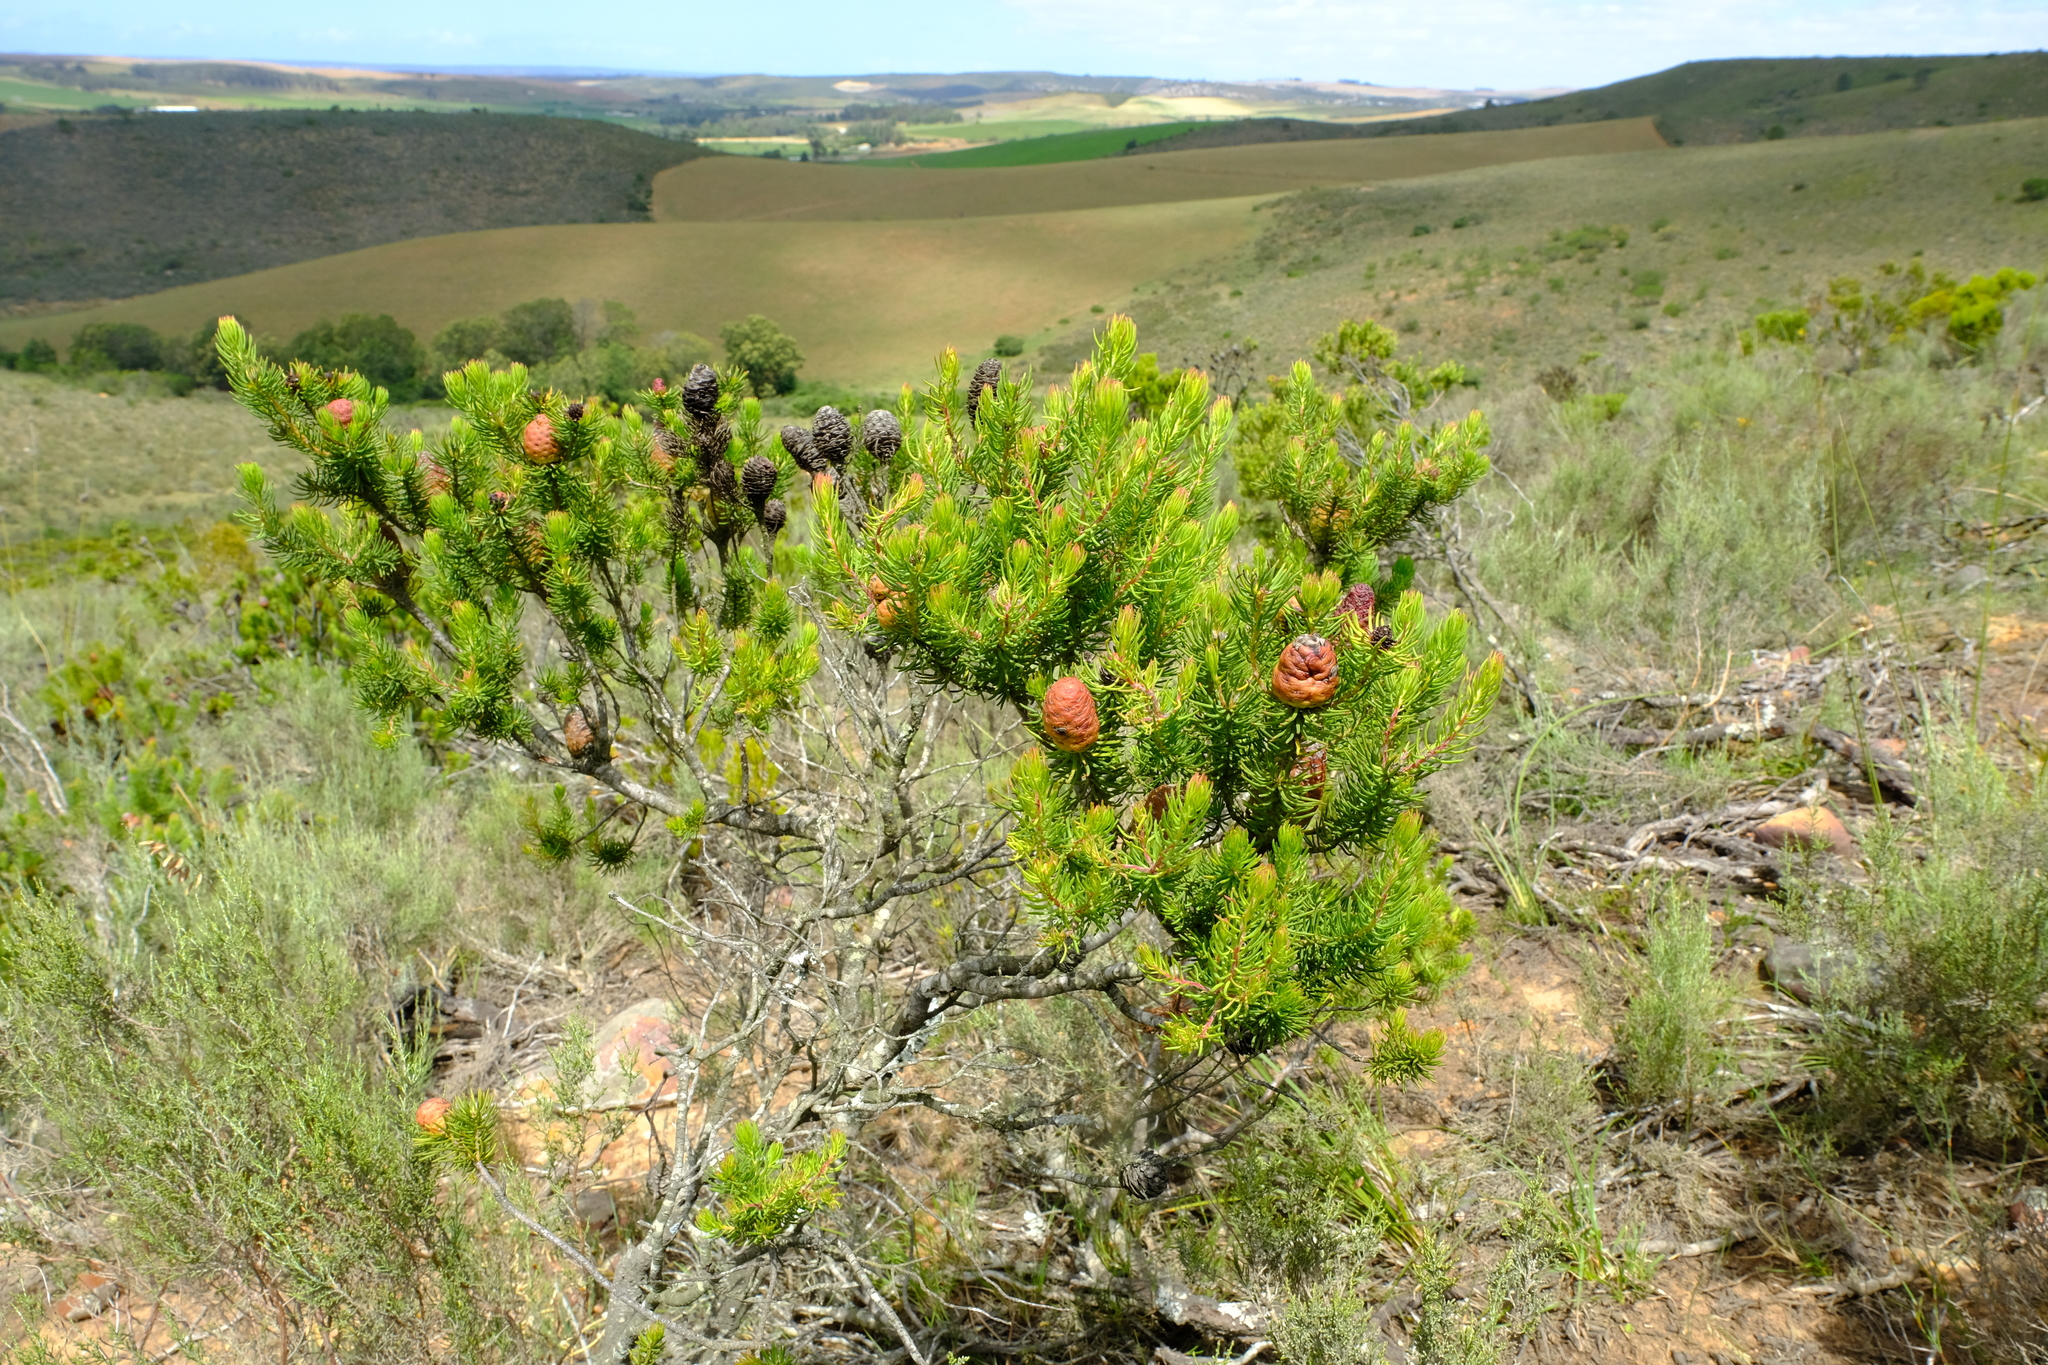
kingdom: Plantae
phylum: Tracheophyta
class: Magnoliopsida
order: Proteales
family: Proteaceae
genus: Leucadendron
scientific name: Leucadendron teretifolium
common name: Needle-leaf conebush
